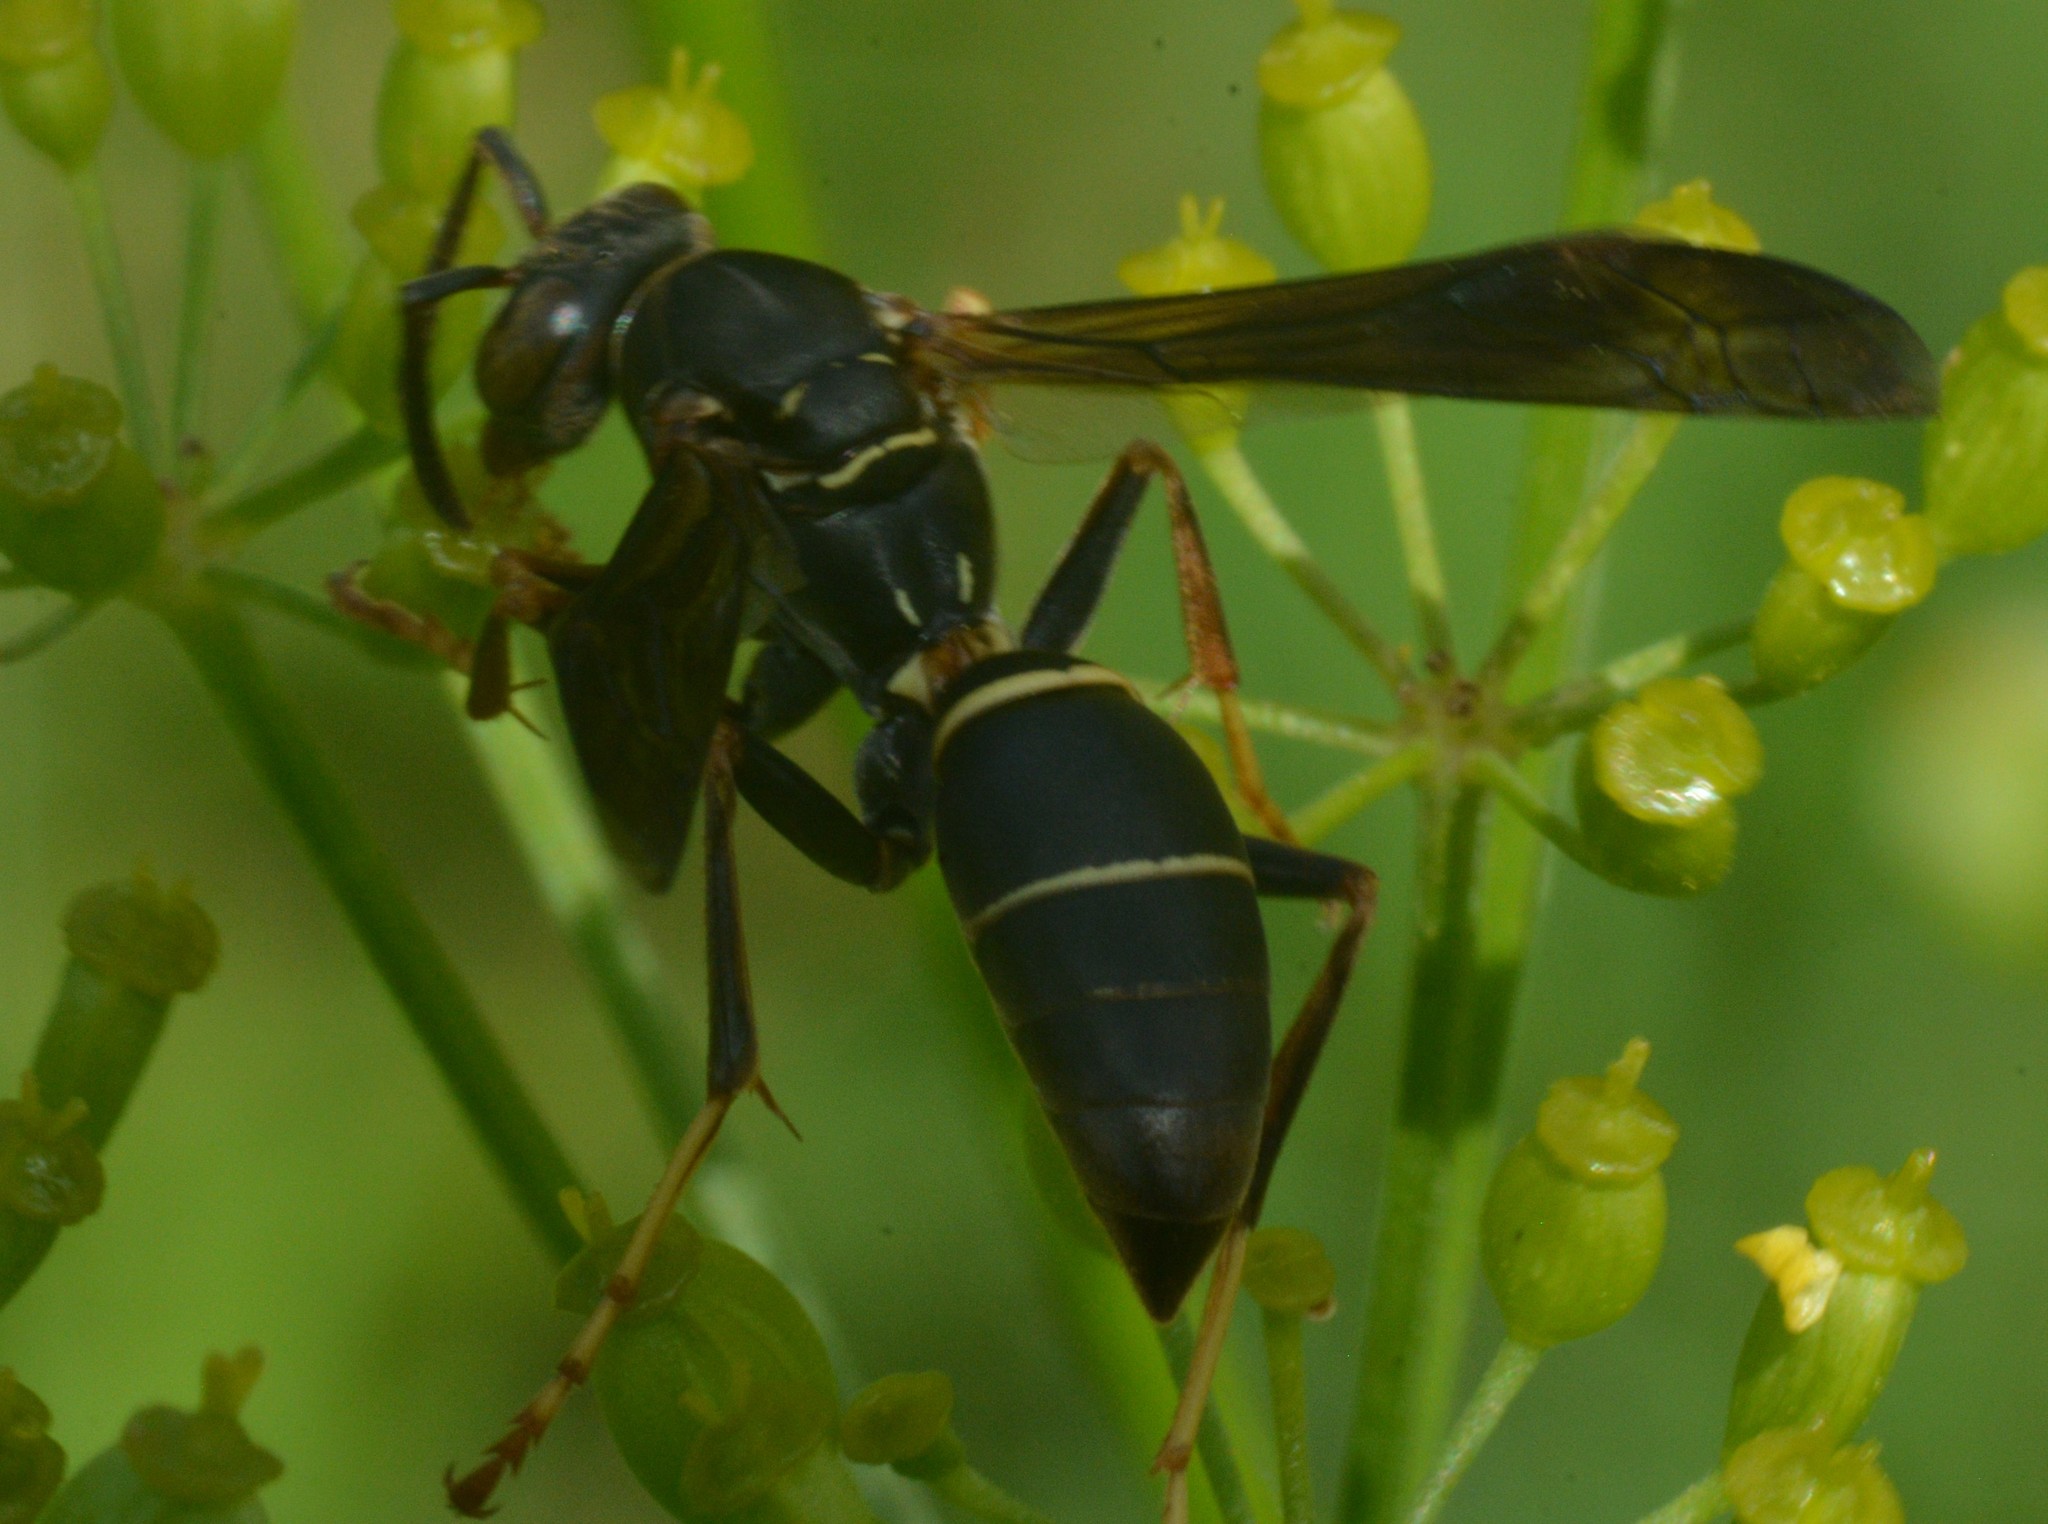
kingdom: Animalia
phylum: Arthropoda
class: Insecta
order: Hymenoptera
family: Eumenidae
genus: Polistes
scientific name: Polistes fuscatus
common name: Dark paper wasp
